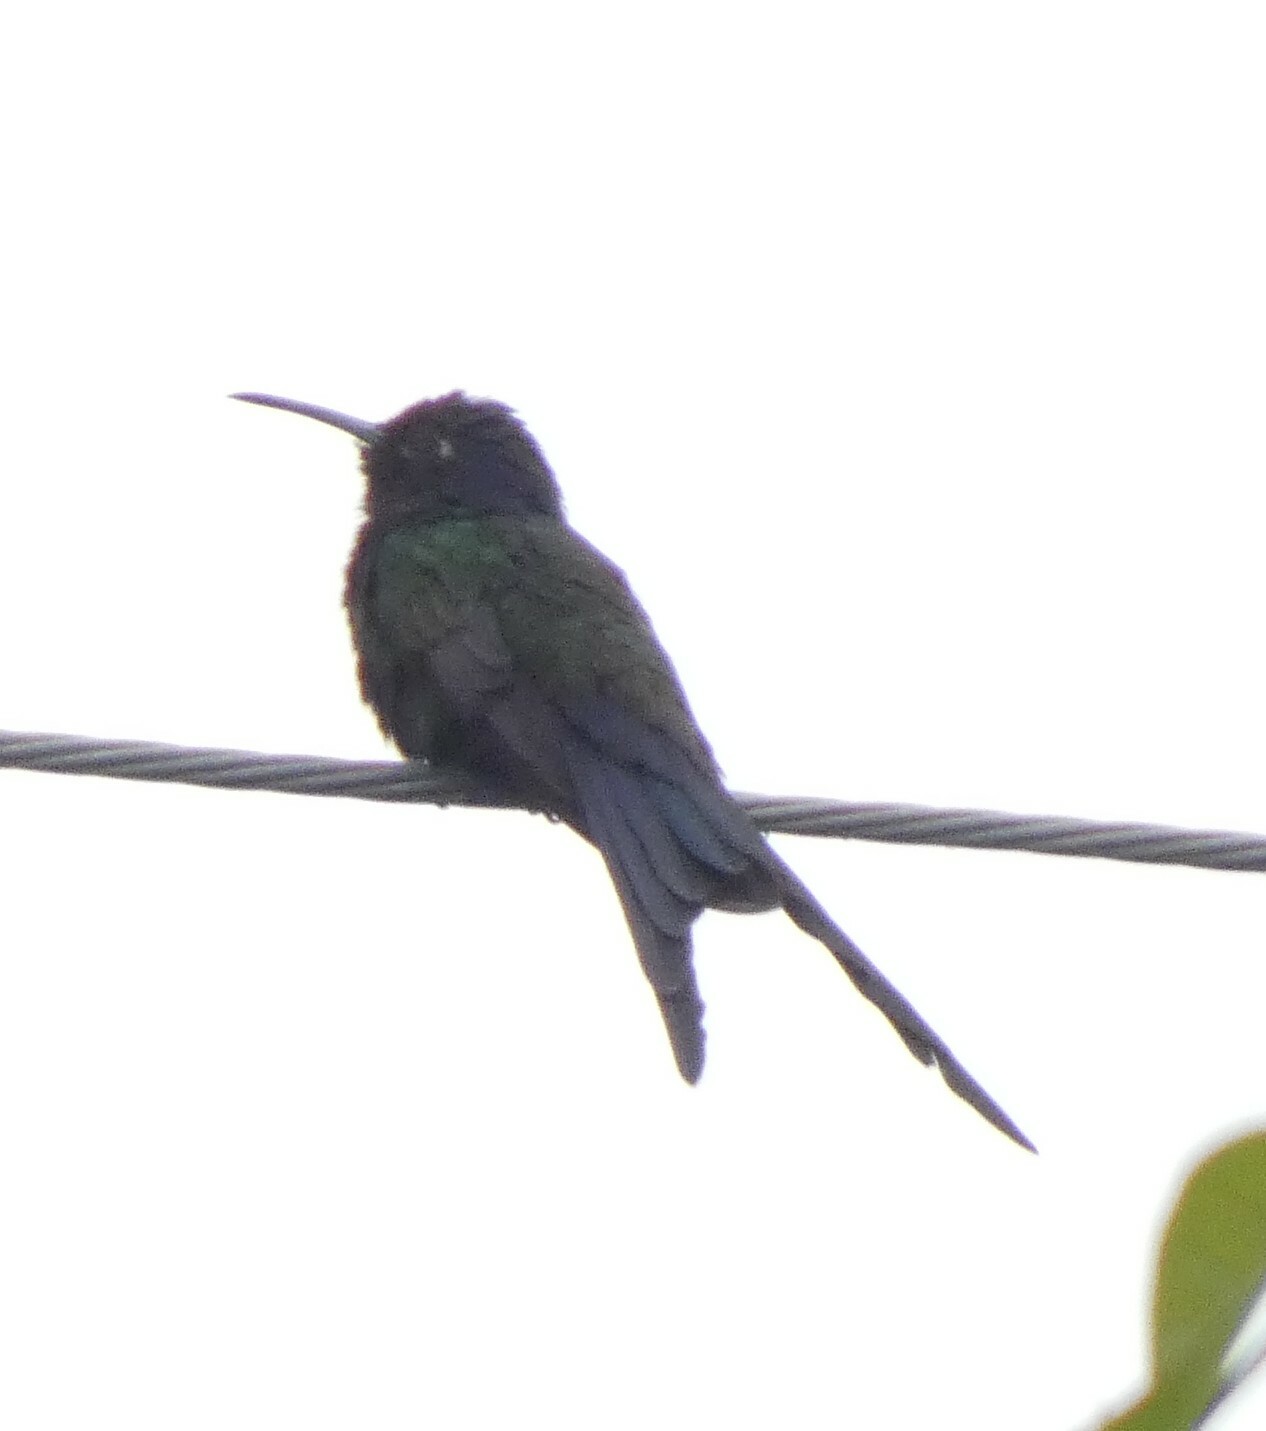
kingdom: Animalia
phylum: Chordata
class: Aves
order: Apodiformes
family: Trochilidae
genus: Eupetomena
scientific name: Eupetomena macroura
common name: Swallow-tailed hummingbird
